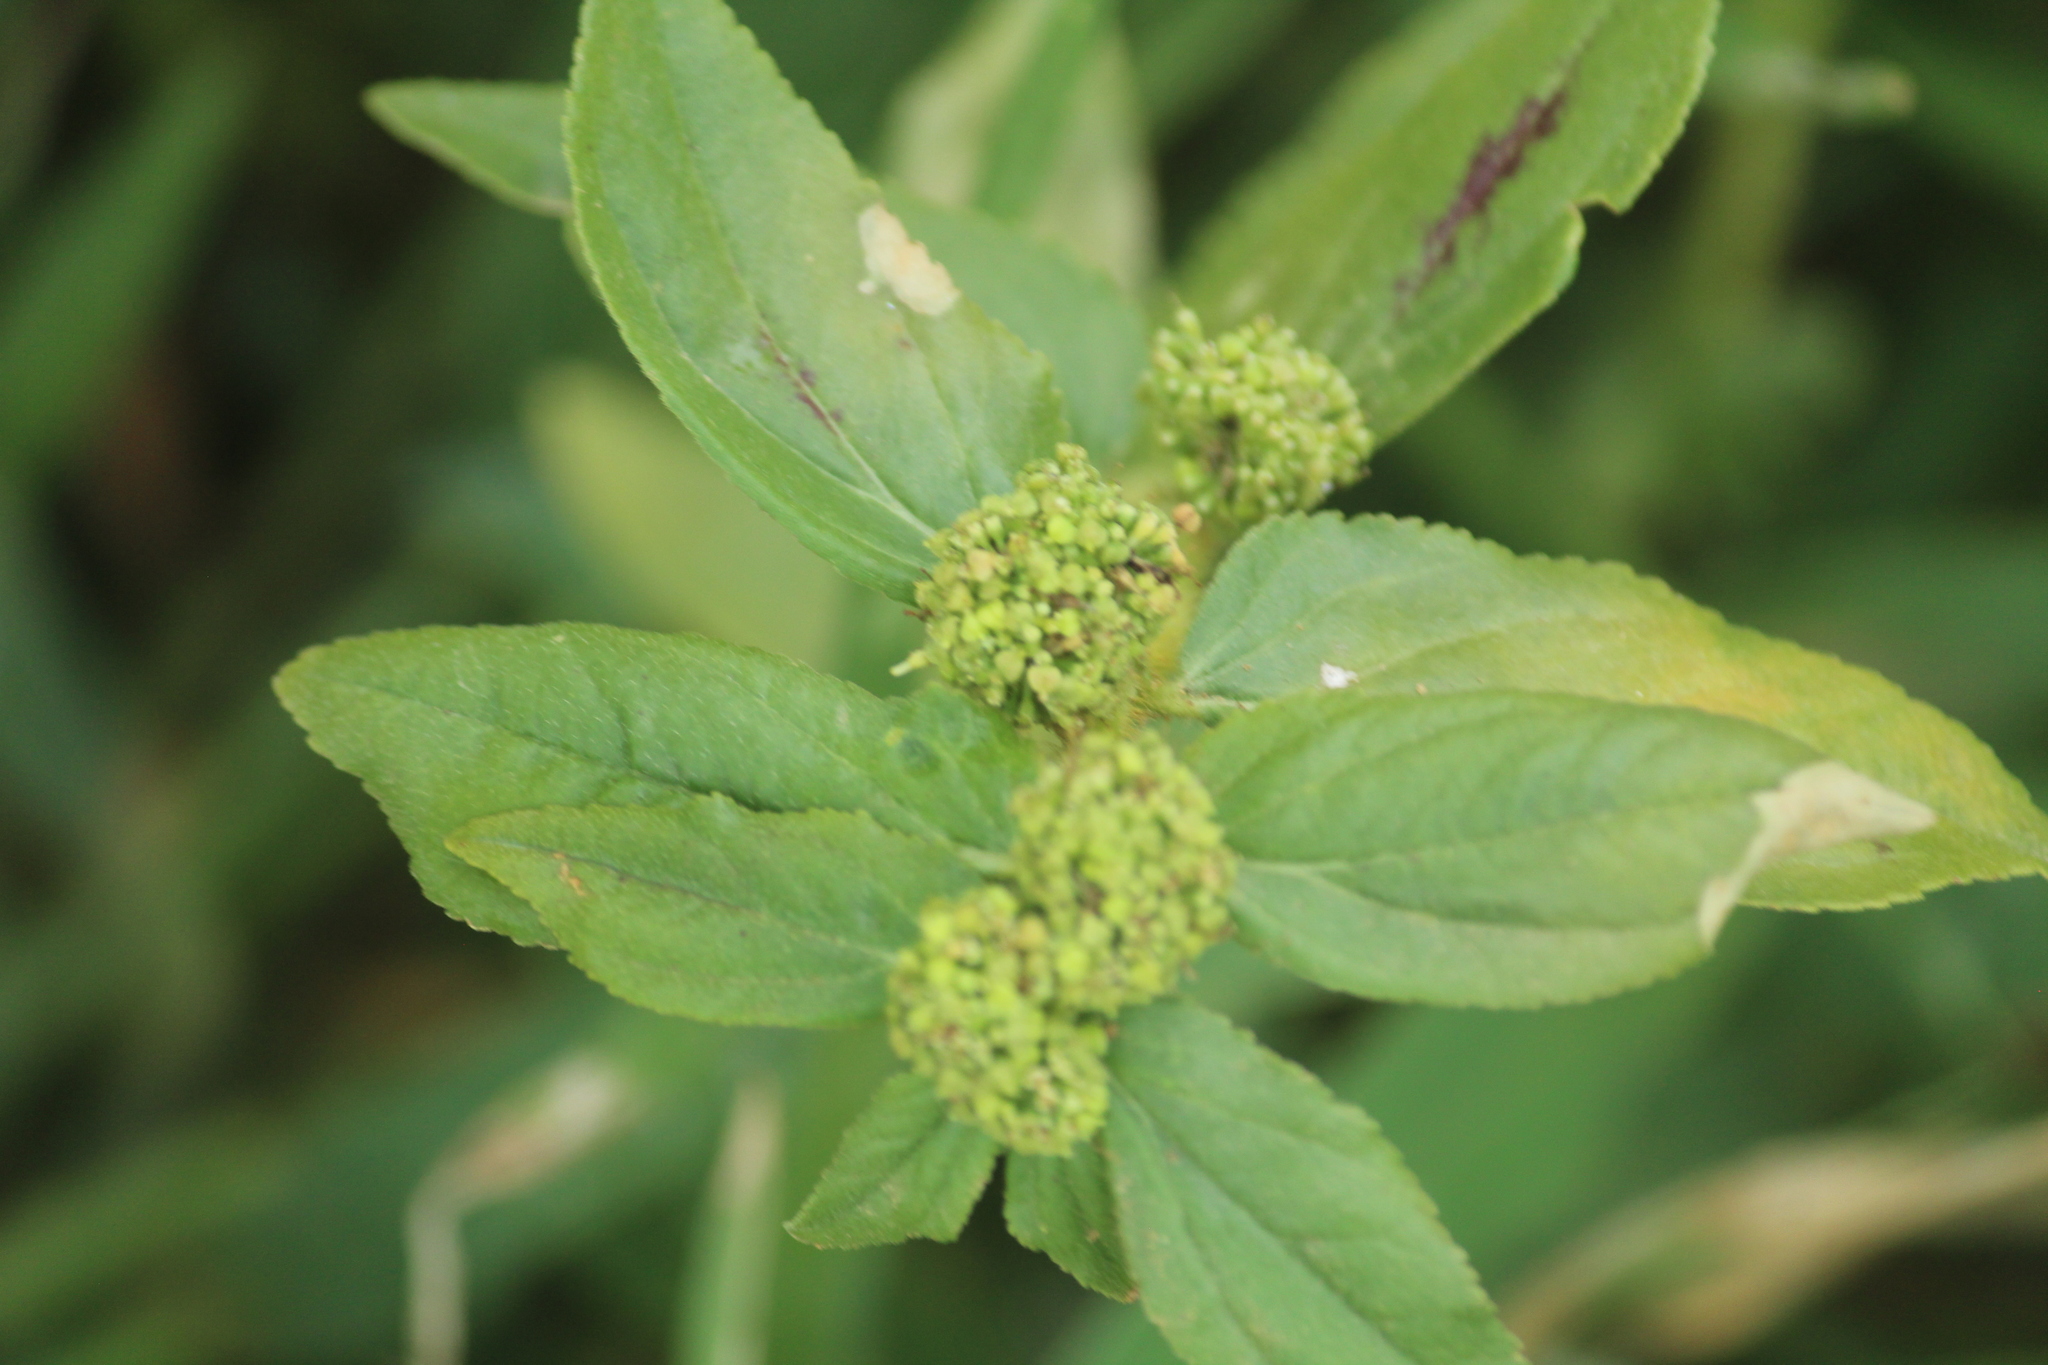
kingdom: Plantae
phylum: Tracheophyta
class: Magnoliopsida
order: Malpighiales
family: Euphorbiaceae
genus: Euphorbia
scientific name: Euphorbia hirta
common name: Pillpod sandmat
